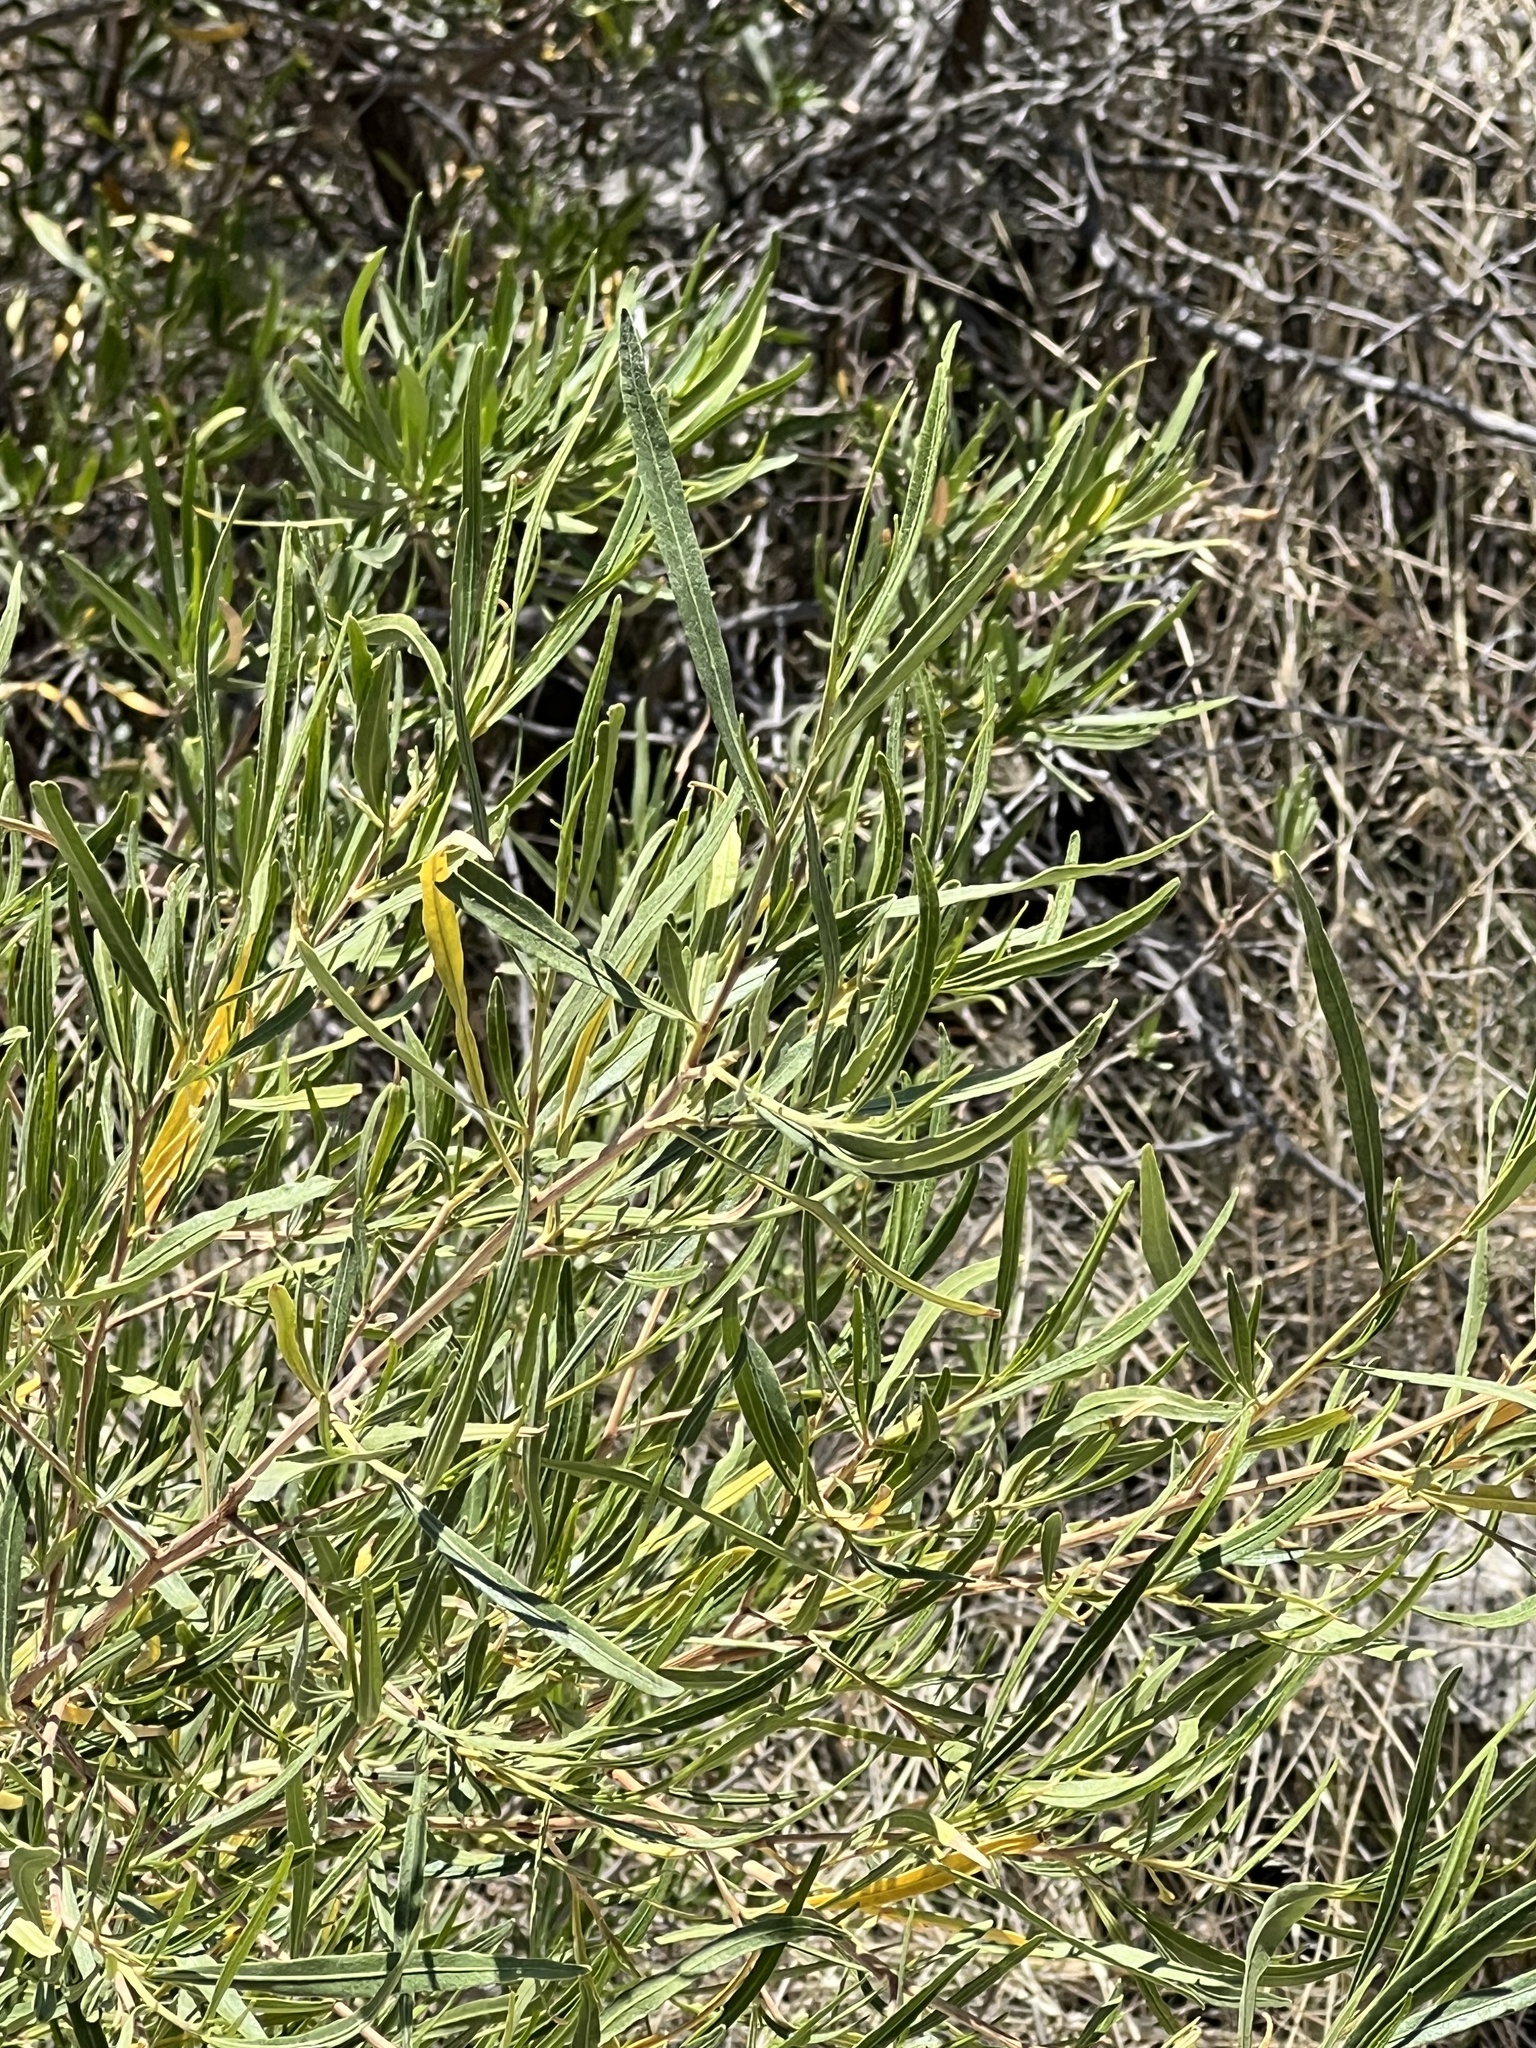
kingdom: Plantae
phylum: Tracheophyta
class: Magnoliopsida
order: Sapindales
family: Sapindaceae
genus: Dodonaea
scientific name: Dodonaea viscosa
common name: Hopbush
